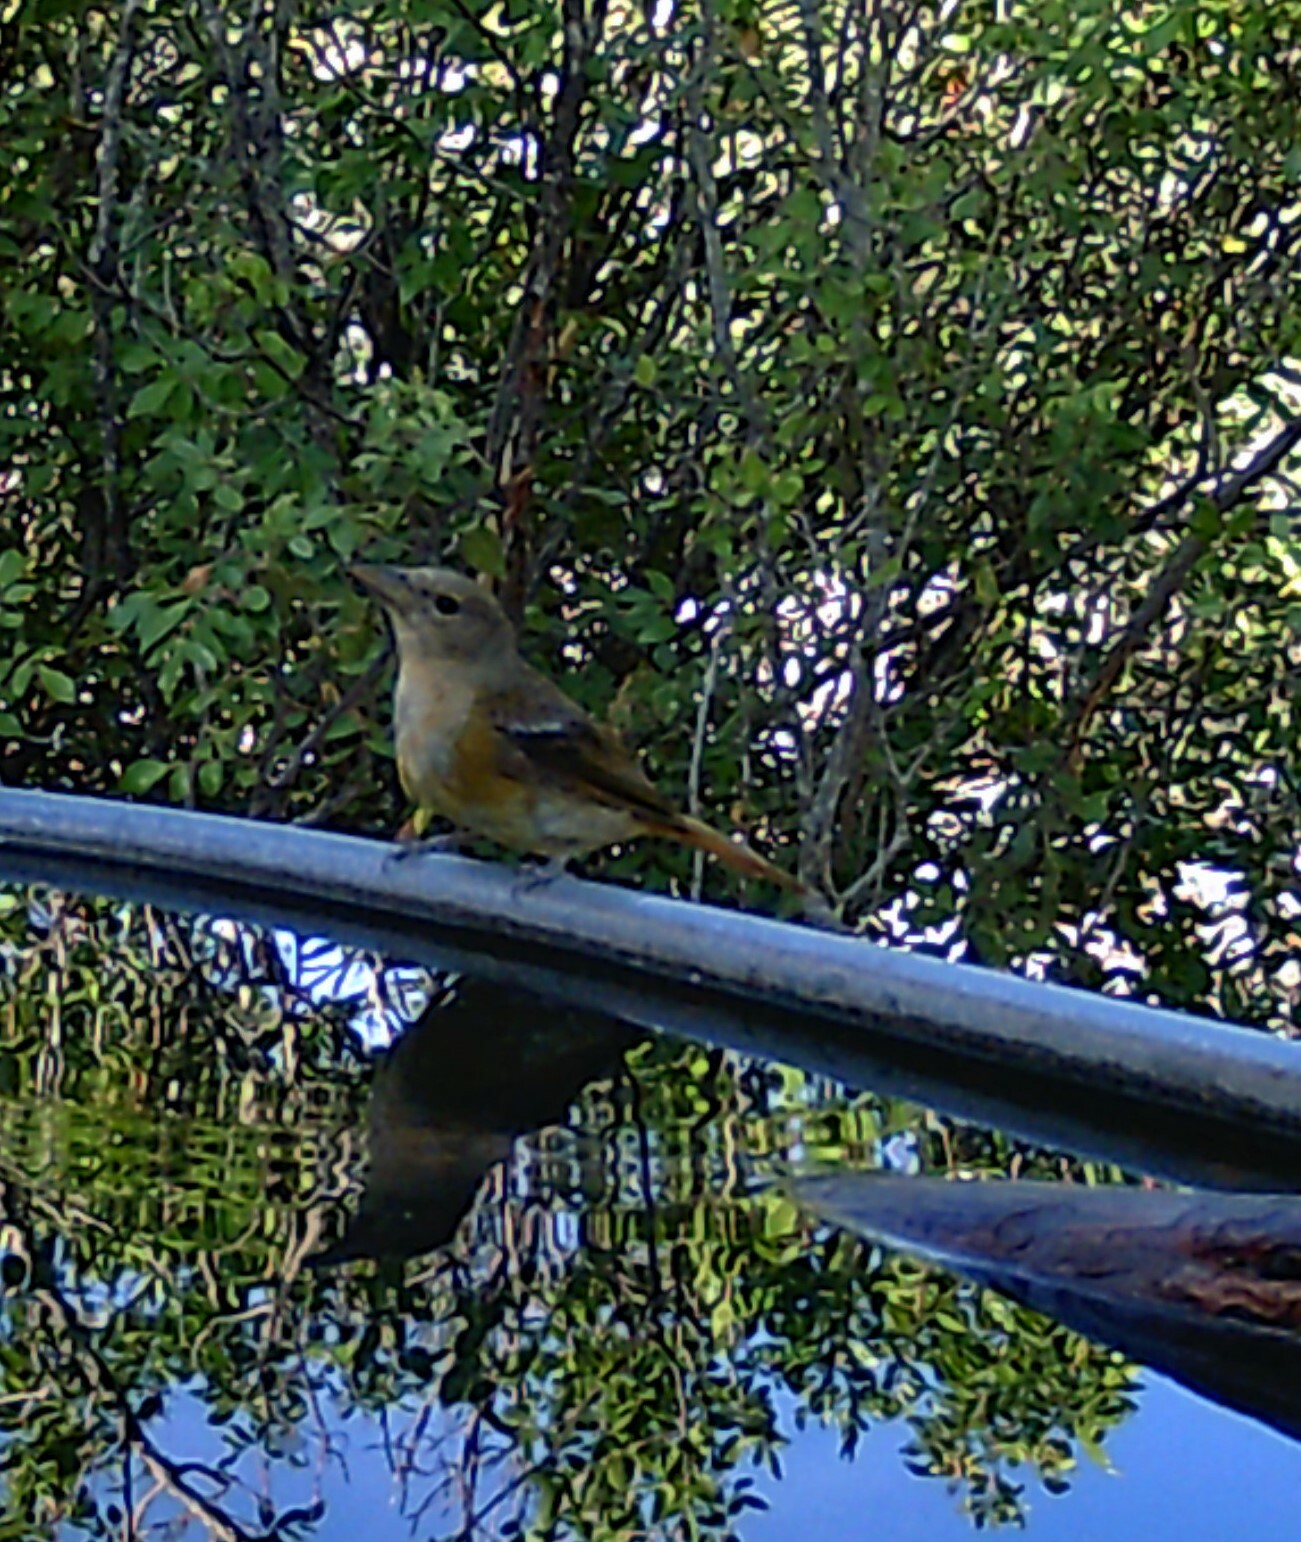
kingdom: Animalia
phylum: Chordata
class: Aves
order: Passeriformes
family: Cardinalidae
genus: Piranga
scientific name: Piranga rubra
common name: Summer tanager
